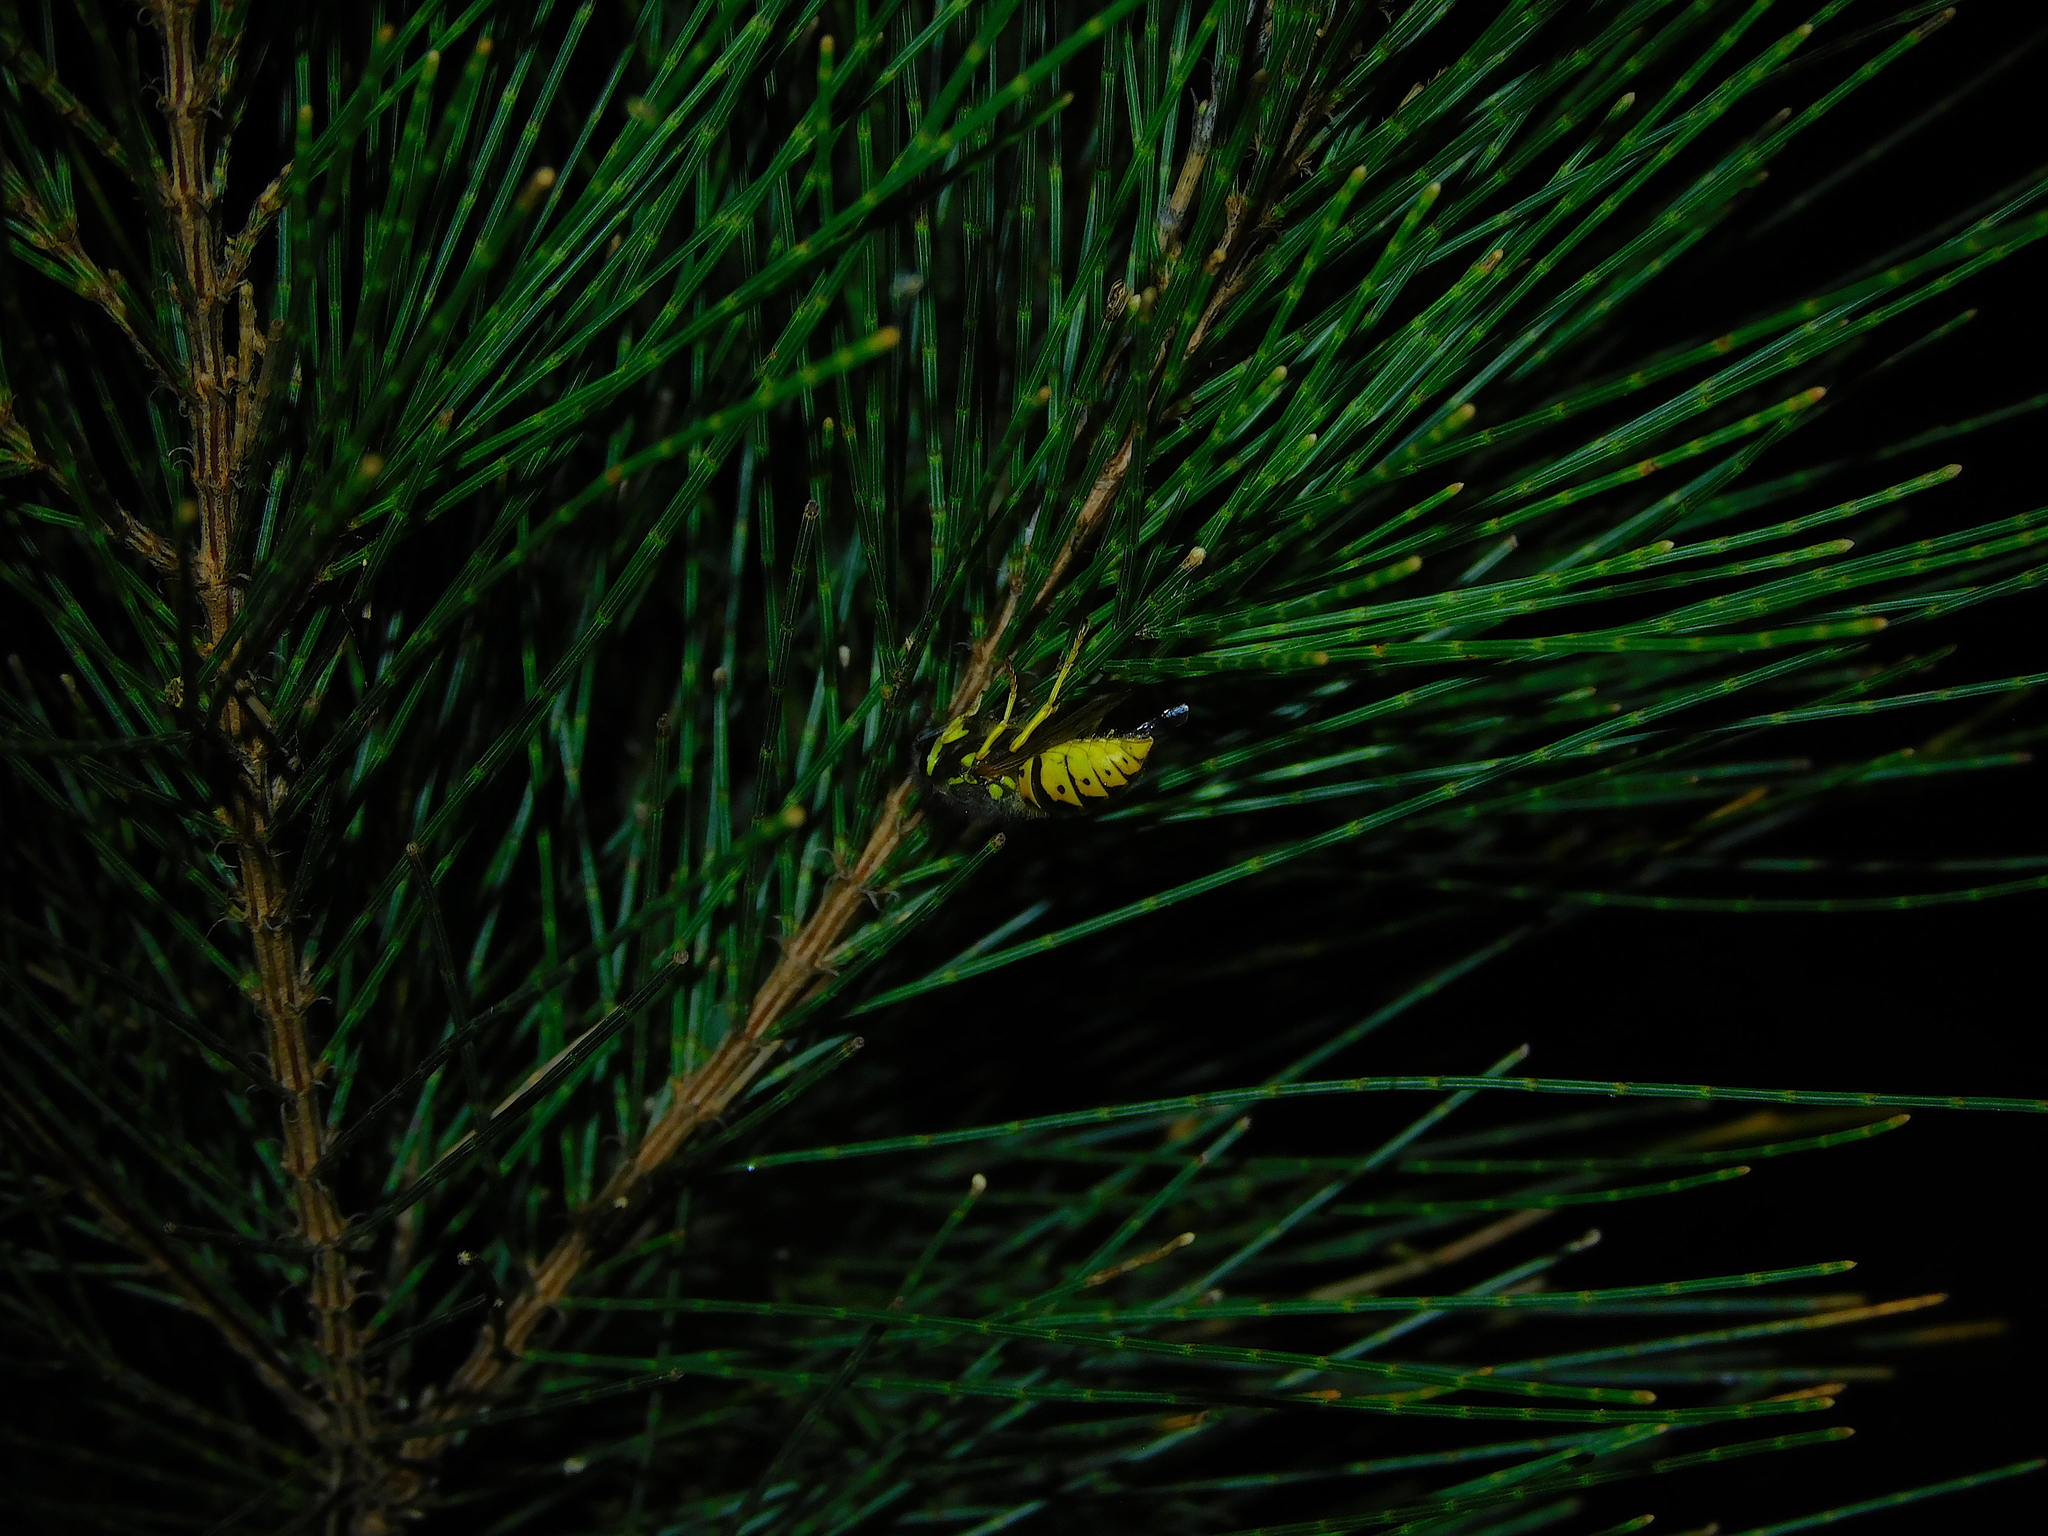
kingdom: Animalia
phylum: Arthropoda
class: Insecta
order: Hymenoptera
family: Vespidae
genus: Vespula
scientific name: Vespula germanica
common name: German wasp
